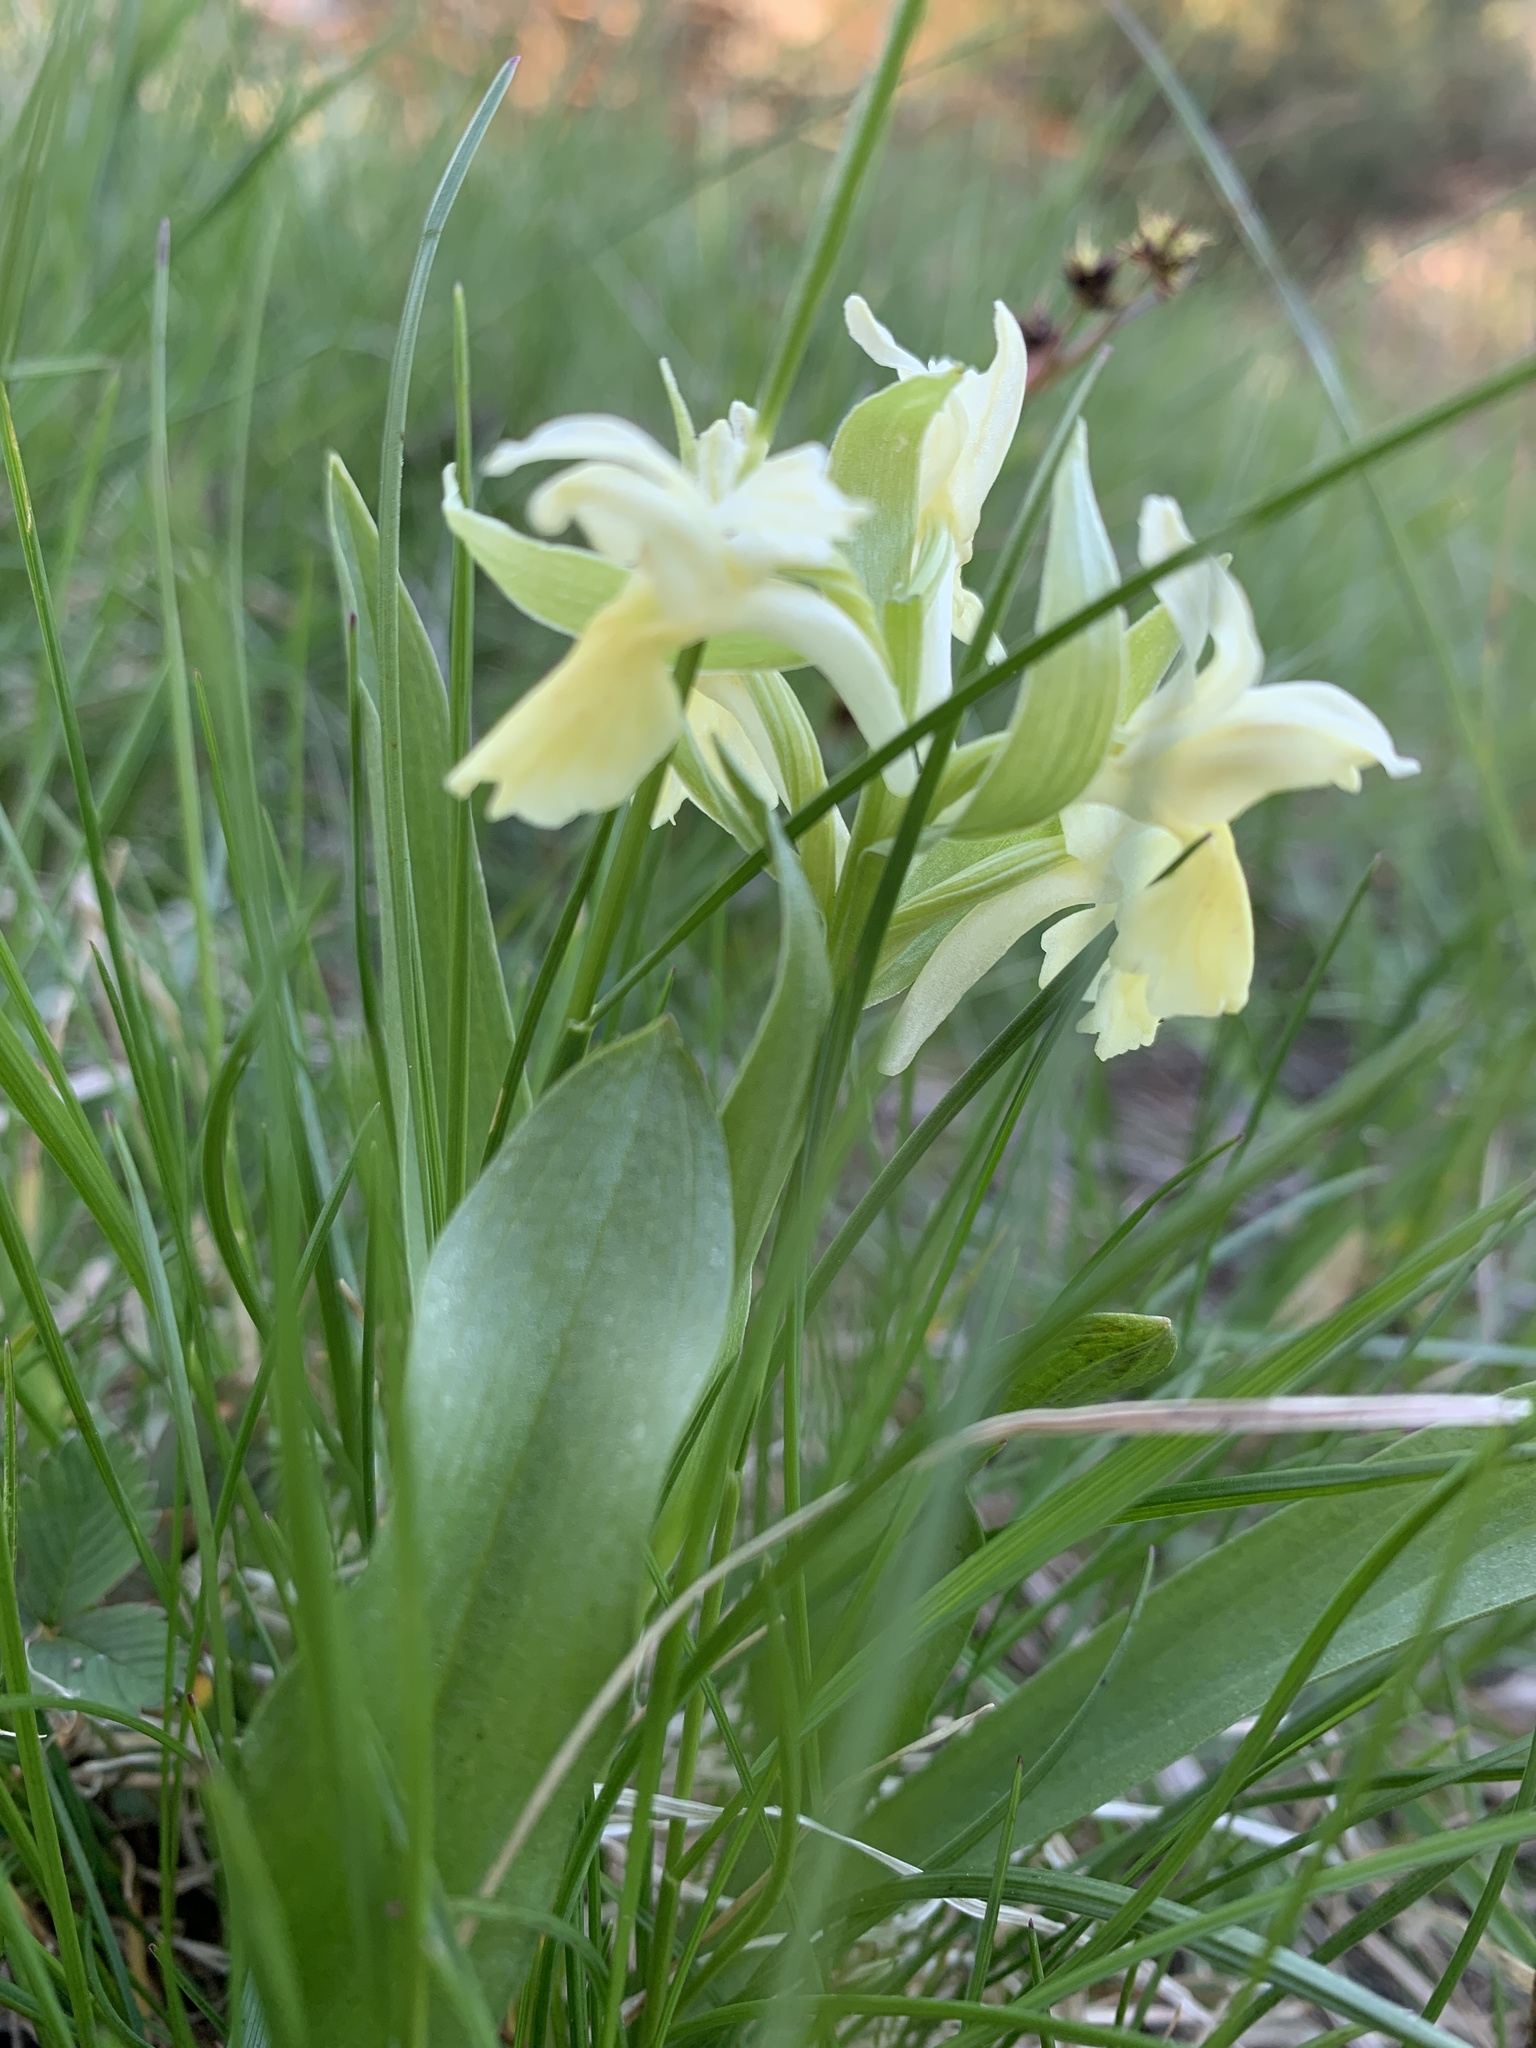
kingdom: Plantae
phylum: Tracheophyta
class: Liliopsida
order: Asparagales
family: Orchidaceae
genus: Dactylorhiza
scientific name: Dactylorhiza sambucina
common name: Elder-flowered orchid
